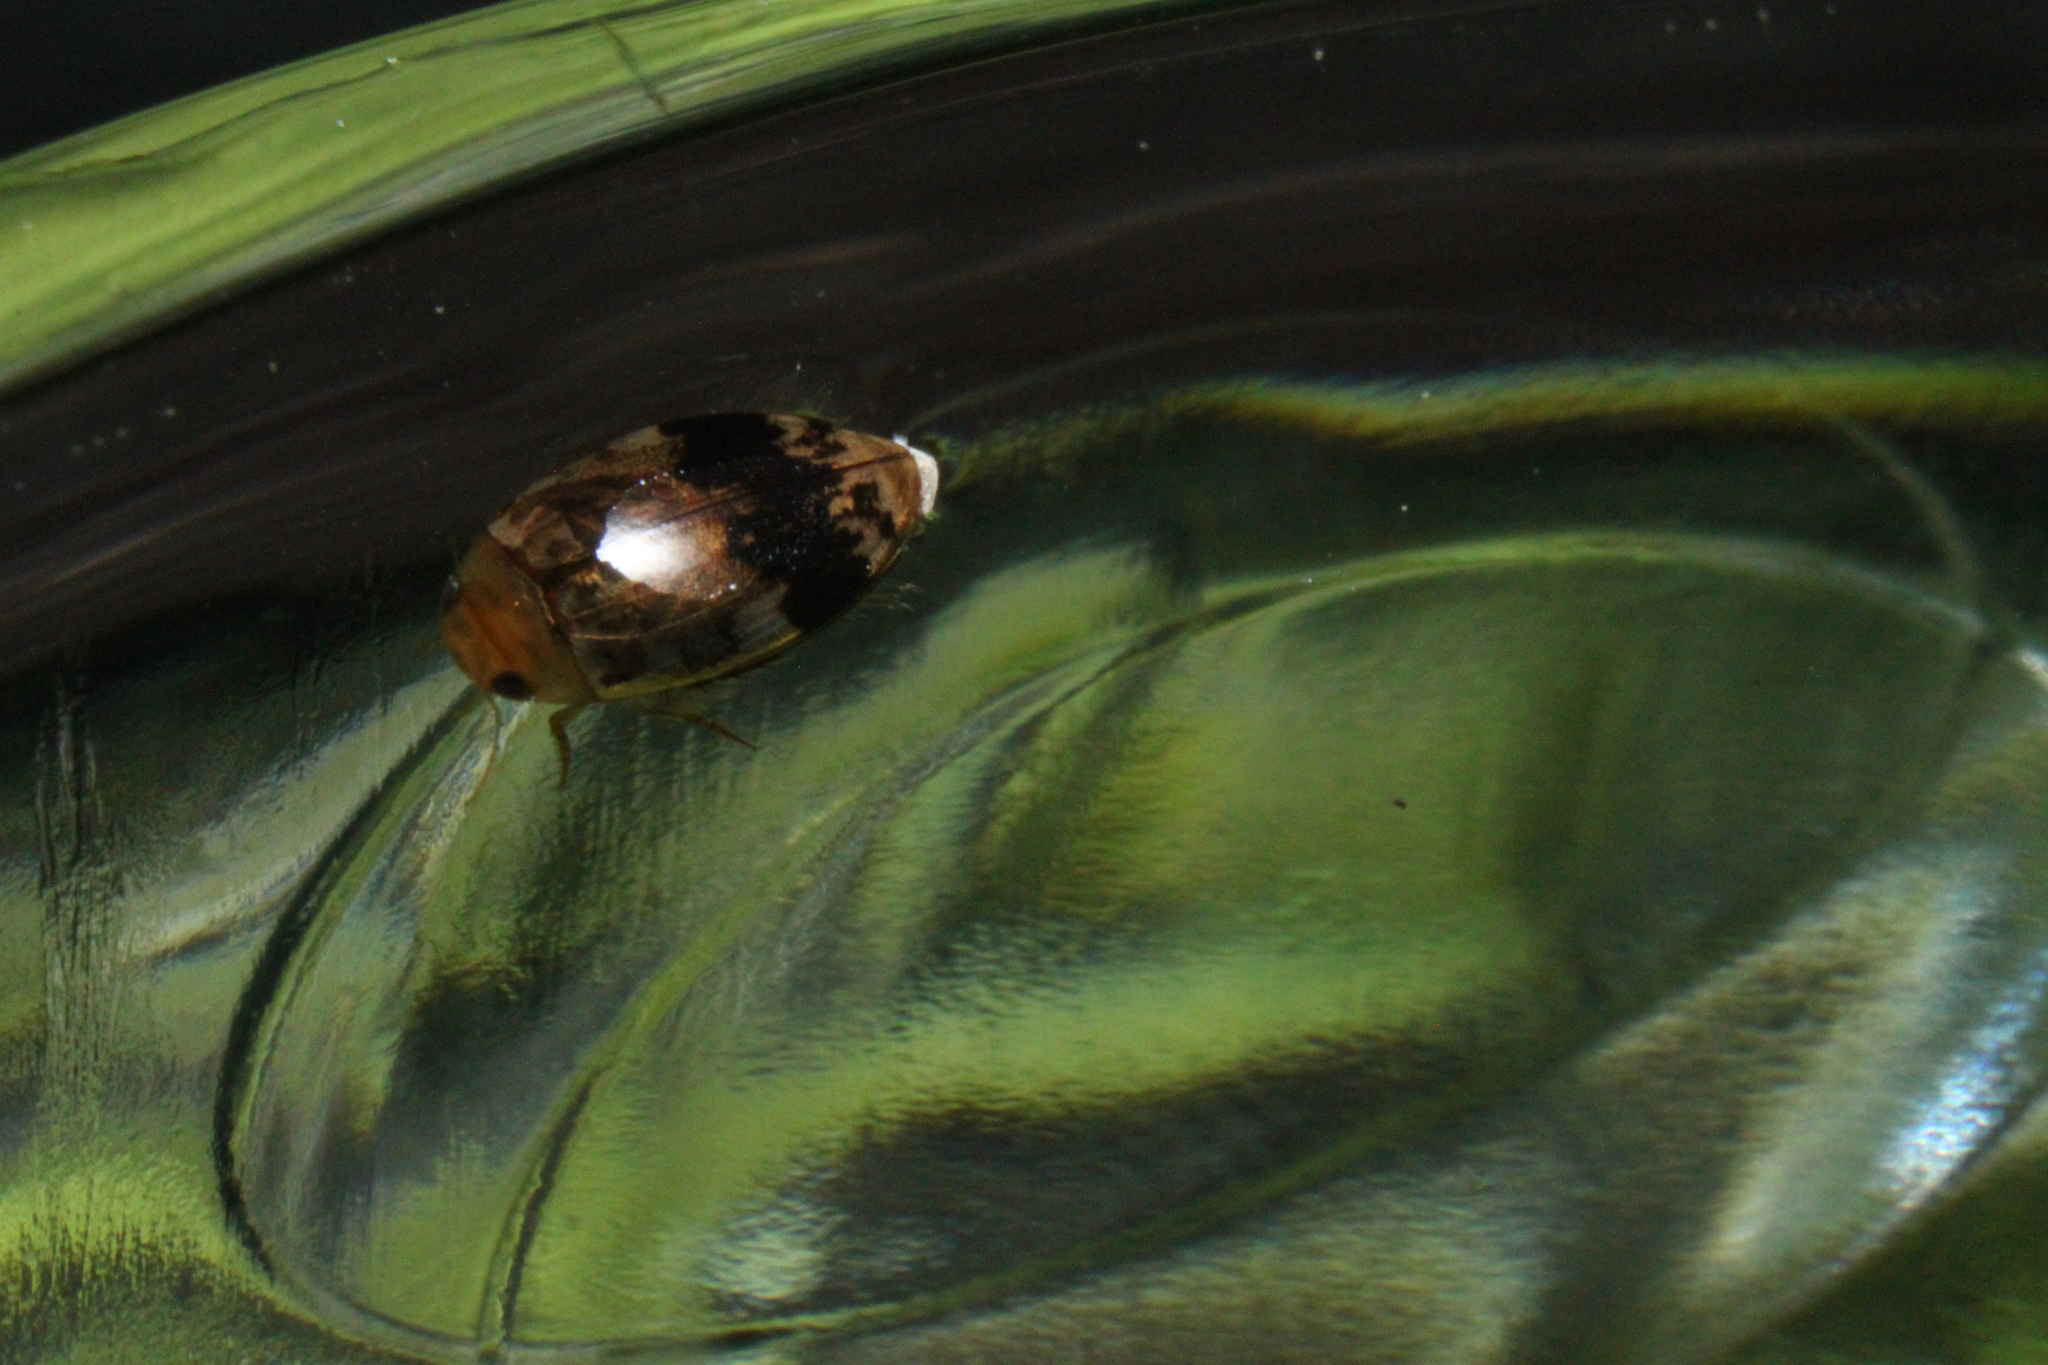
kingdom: Animalia
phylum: Arthropoda
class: Insecta
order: Coleoptera
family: Dytiscidae
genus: Laccophilus
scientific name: Laccophilus fasciatus
